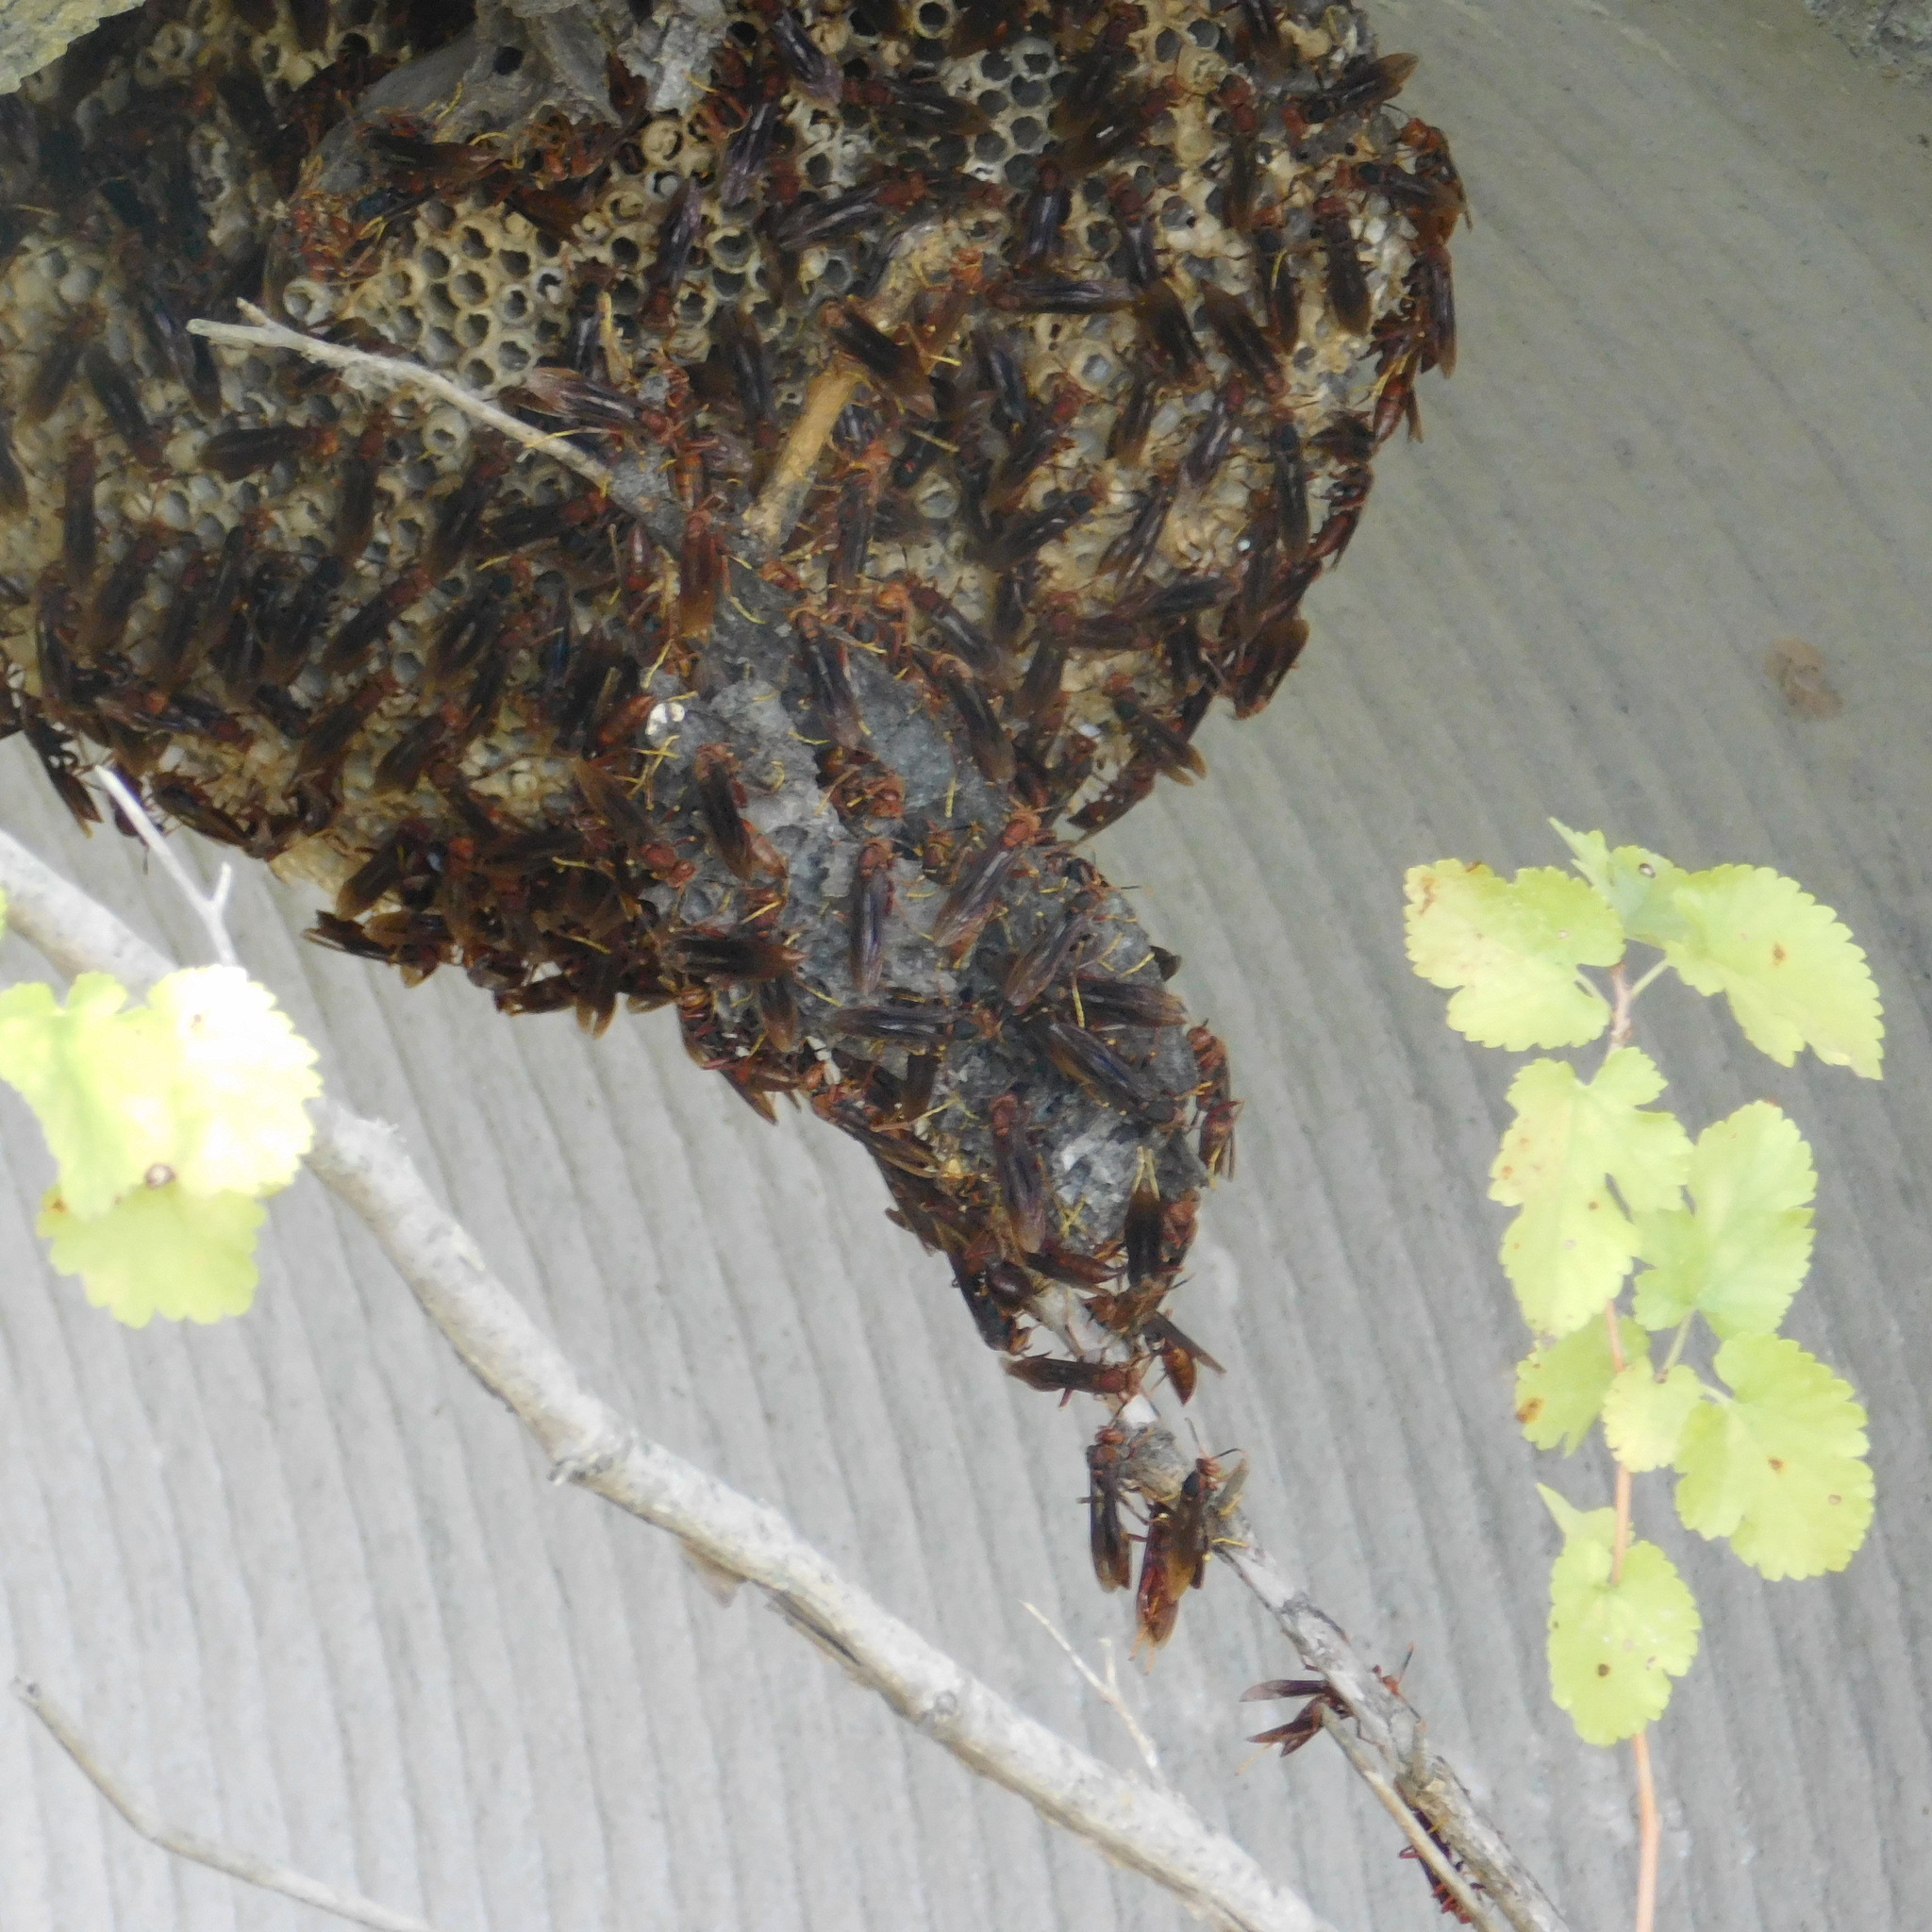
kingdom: Animalia
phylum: Arthropoda
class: Insecta
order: Hymenoptera
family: Pompilidae
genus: Aphanilopterus
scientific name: Aphanilopterus
